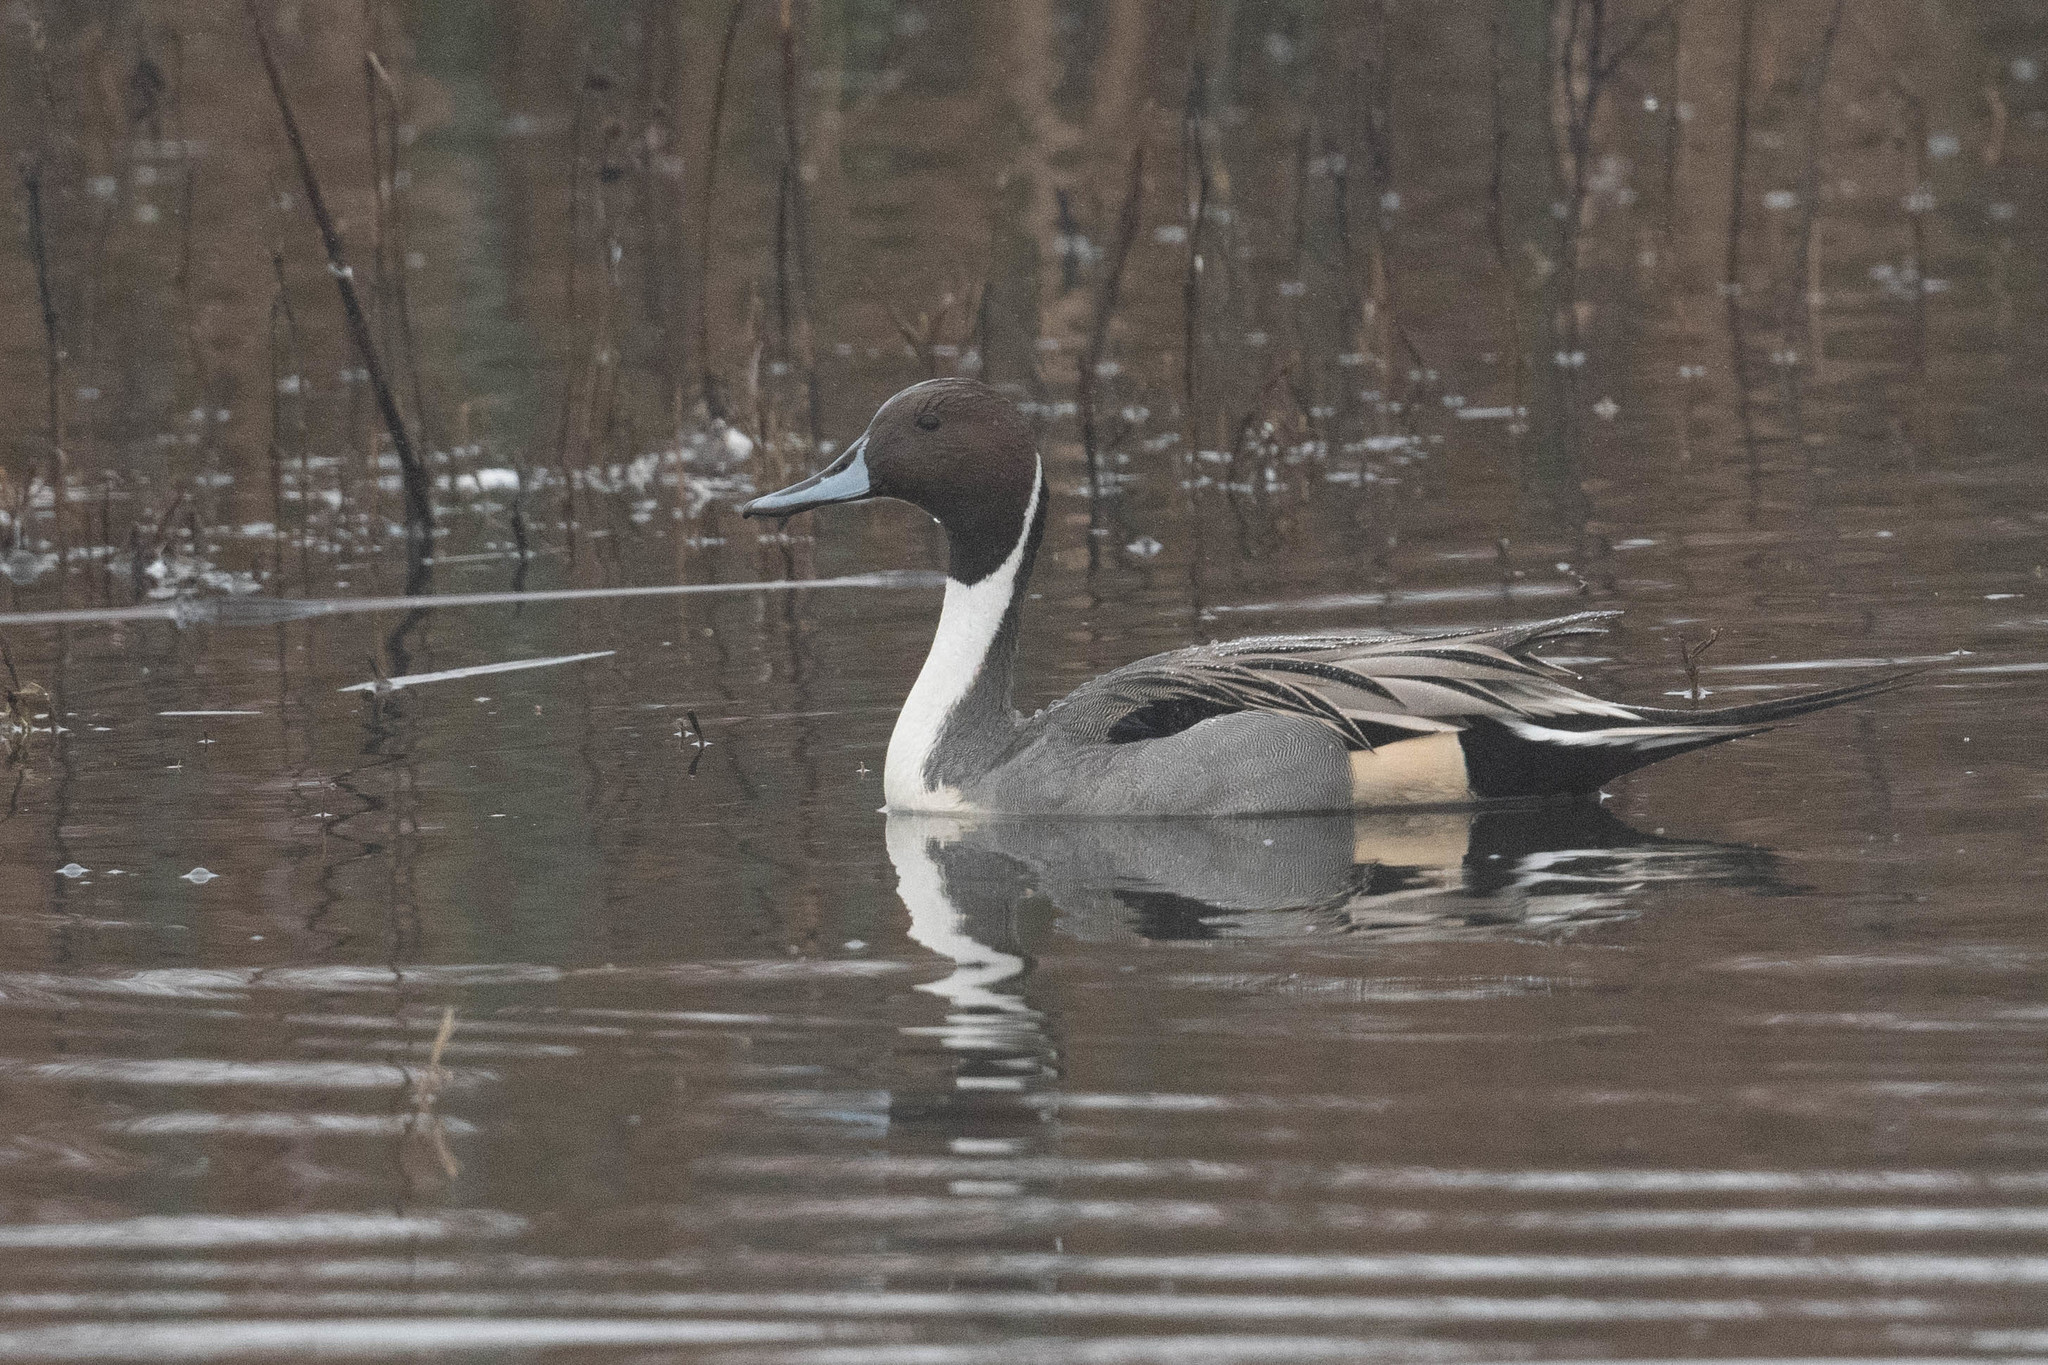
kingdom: Animalia
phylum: Chordata
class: Aves
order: Anseriformes
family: Anatidae
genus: Anas
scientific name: Anas acuta
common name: Northern pintail
